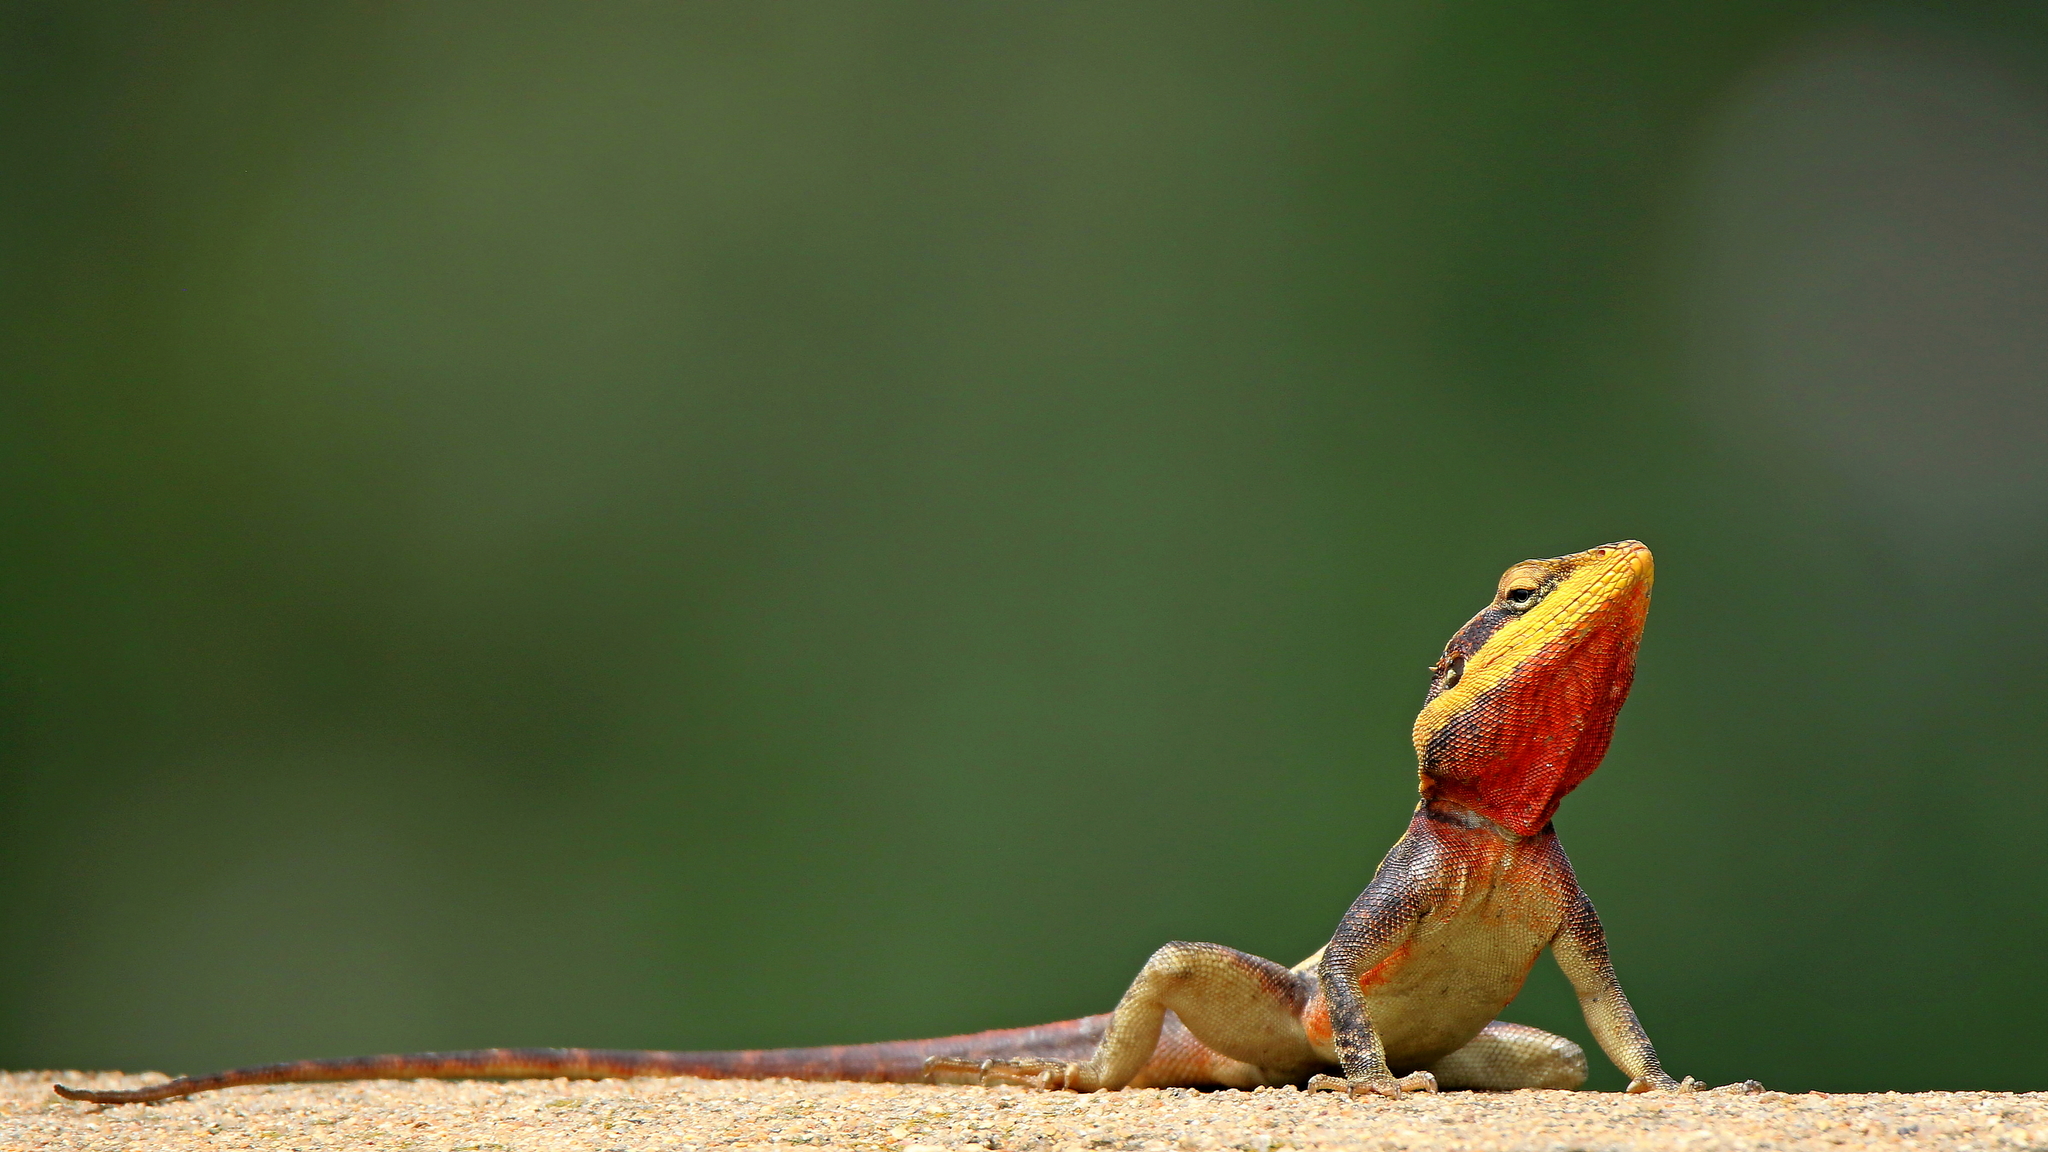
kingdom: Animalia
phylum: Chordata
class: Squamata
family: Agamidae
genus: Psammophilus
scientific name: Psammophilus dorsalis
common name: South indian rock agama
